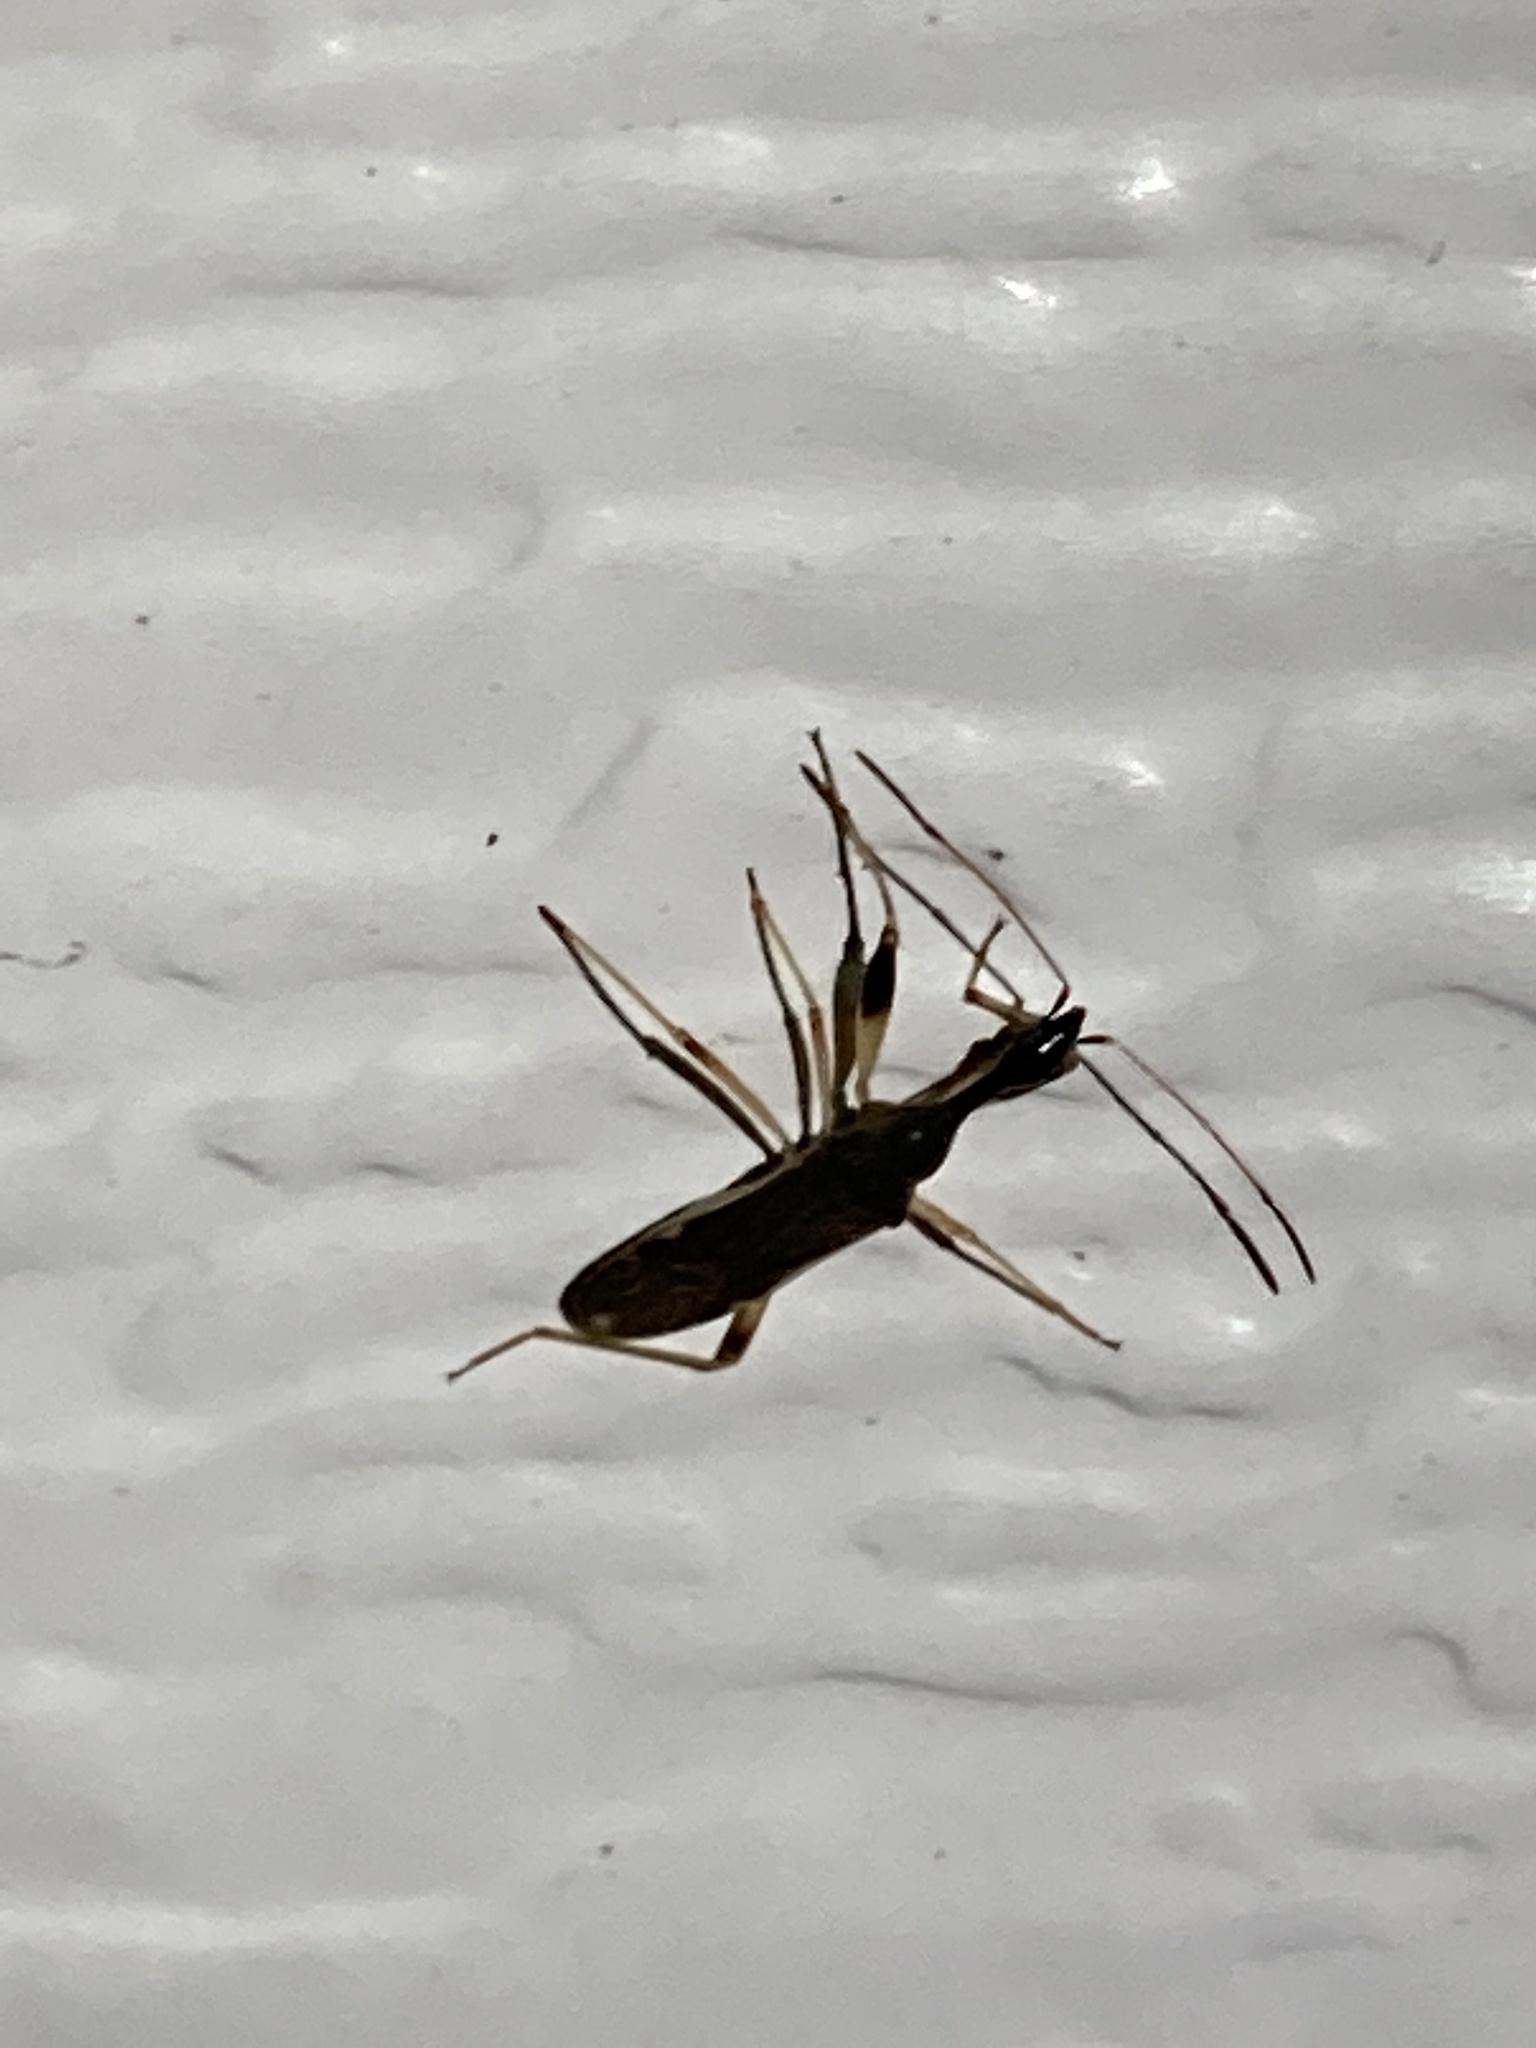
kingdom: Animalia
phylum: Arthropoda
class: Insecta
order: Hemiptera
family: Rhyparochromidae
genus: Myodocha
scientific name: Myodocha serripes
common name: Long-necked seed bug
